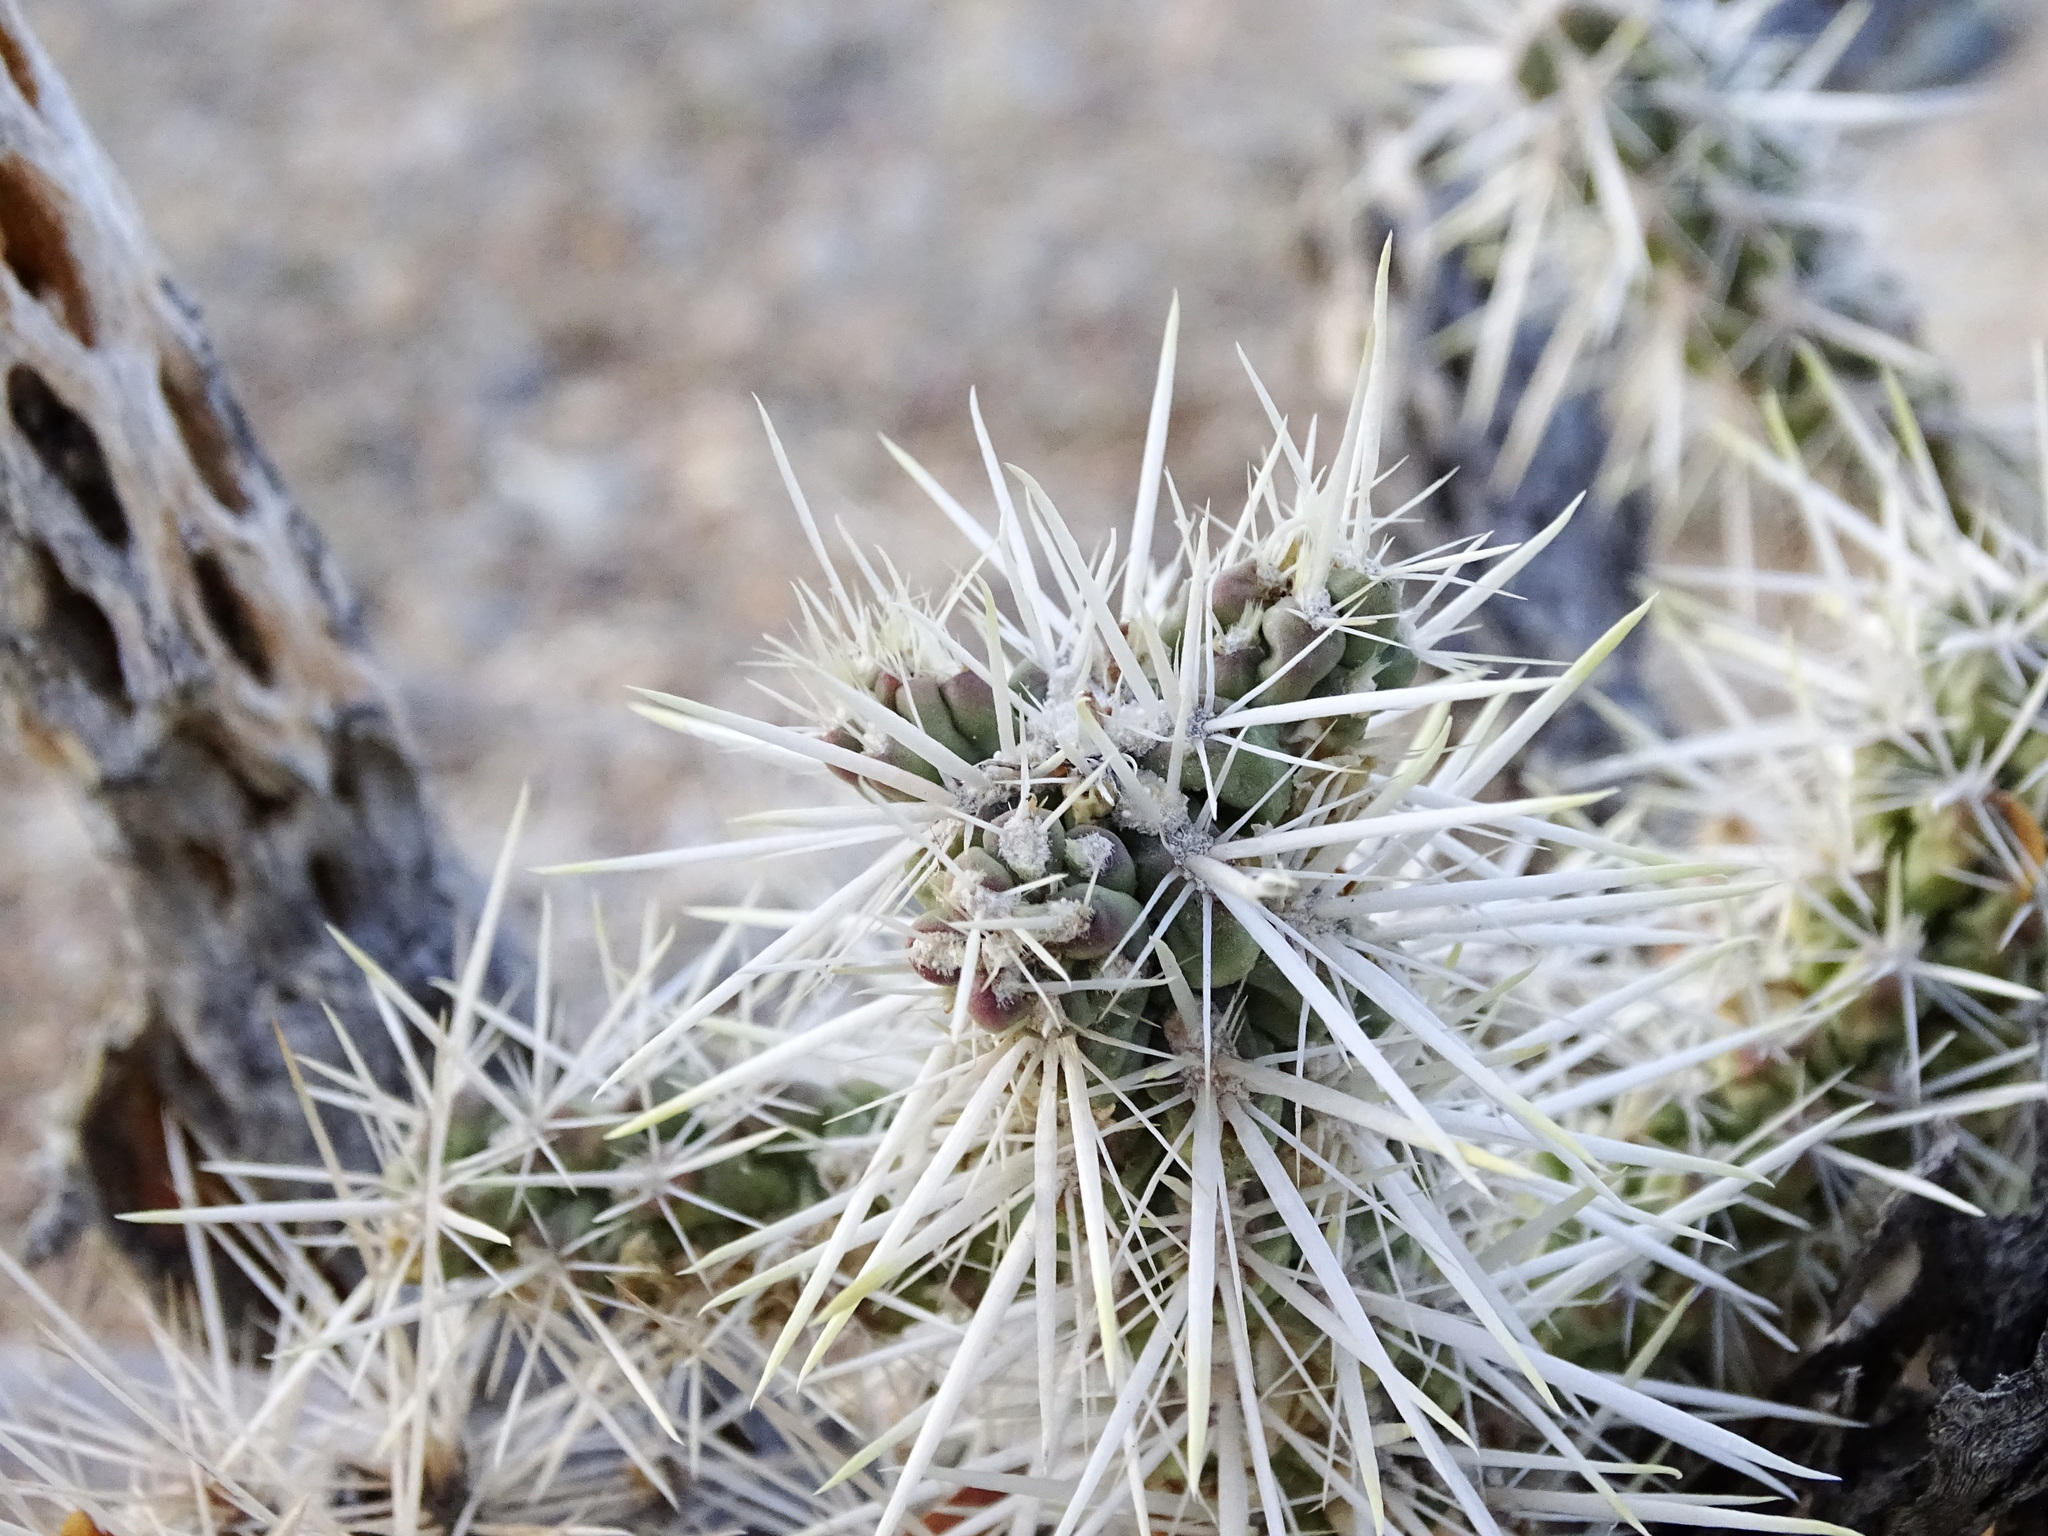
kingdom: Plantae
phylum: Tracheophyta
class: Magnoliopsida
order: Caryophyllales
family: Cactaceae
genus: Cylindropuntia
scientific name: Cylindropuntia echinocarpa
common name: Ground cholla
